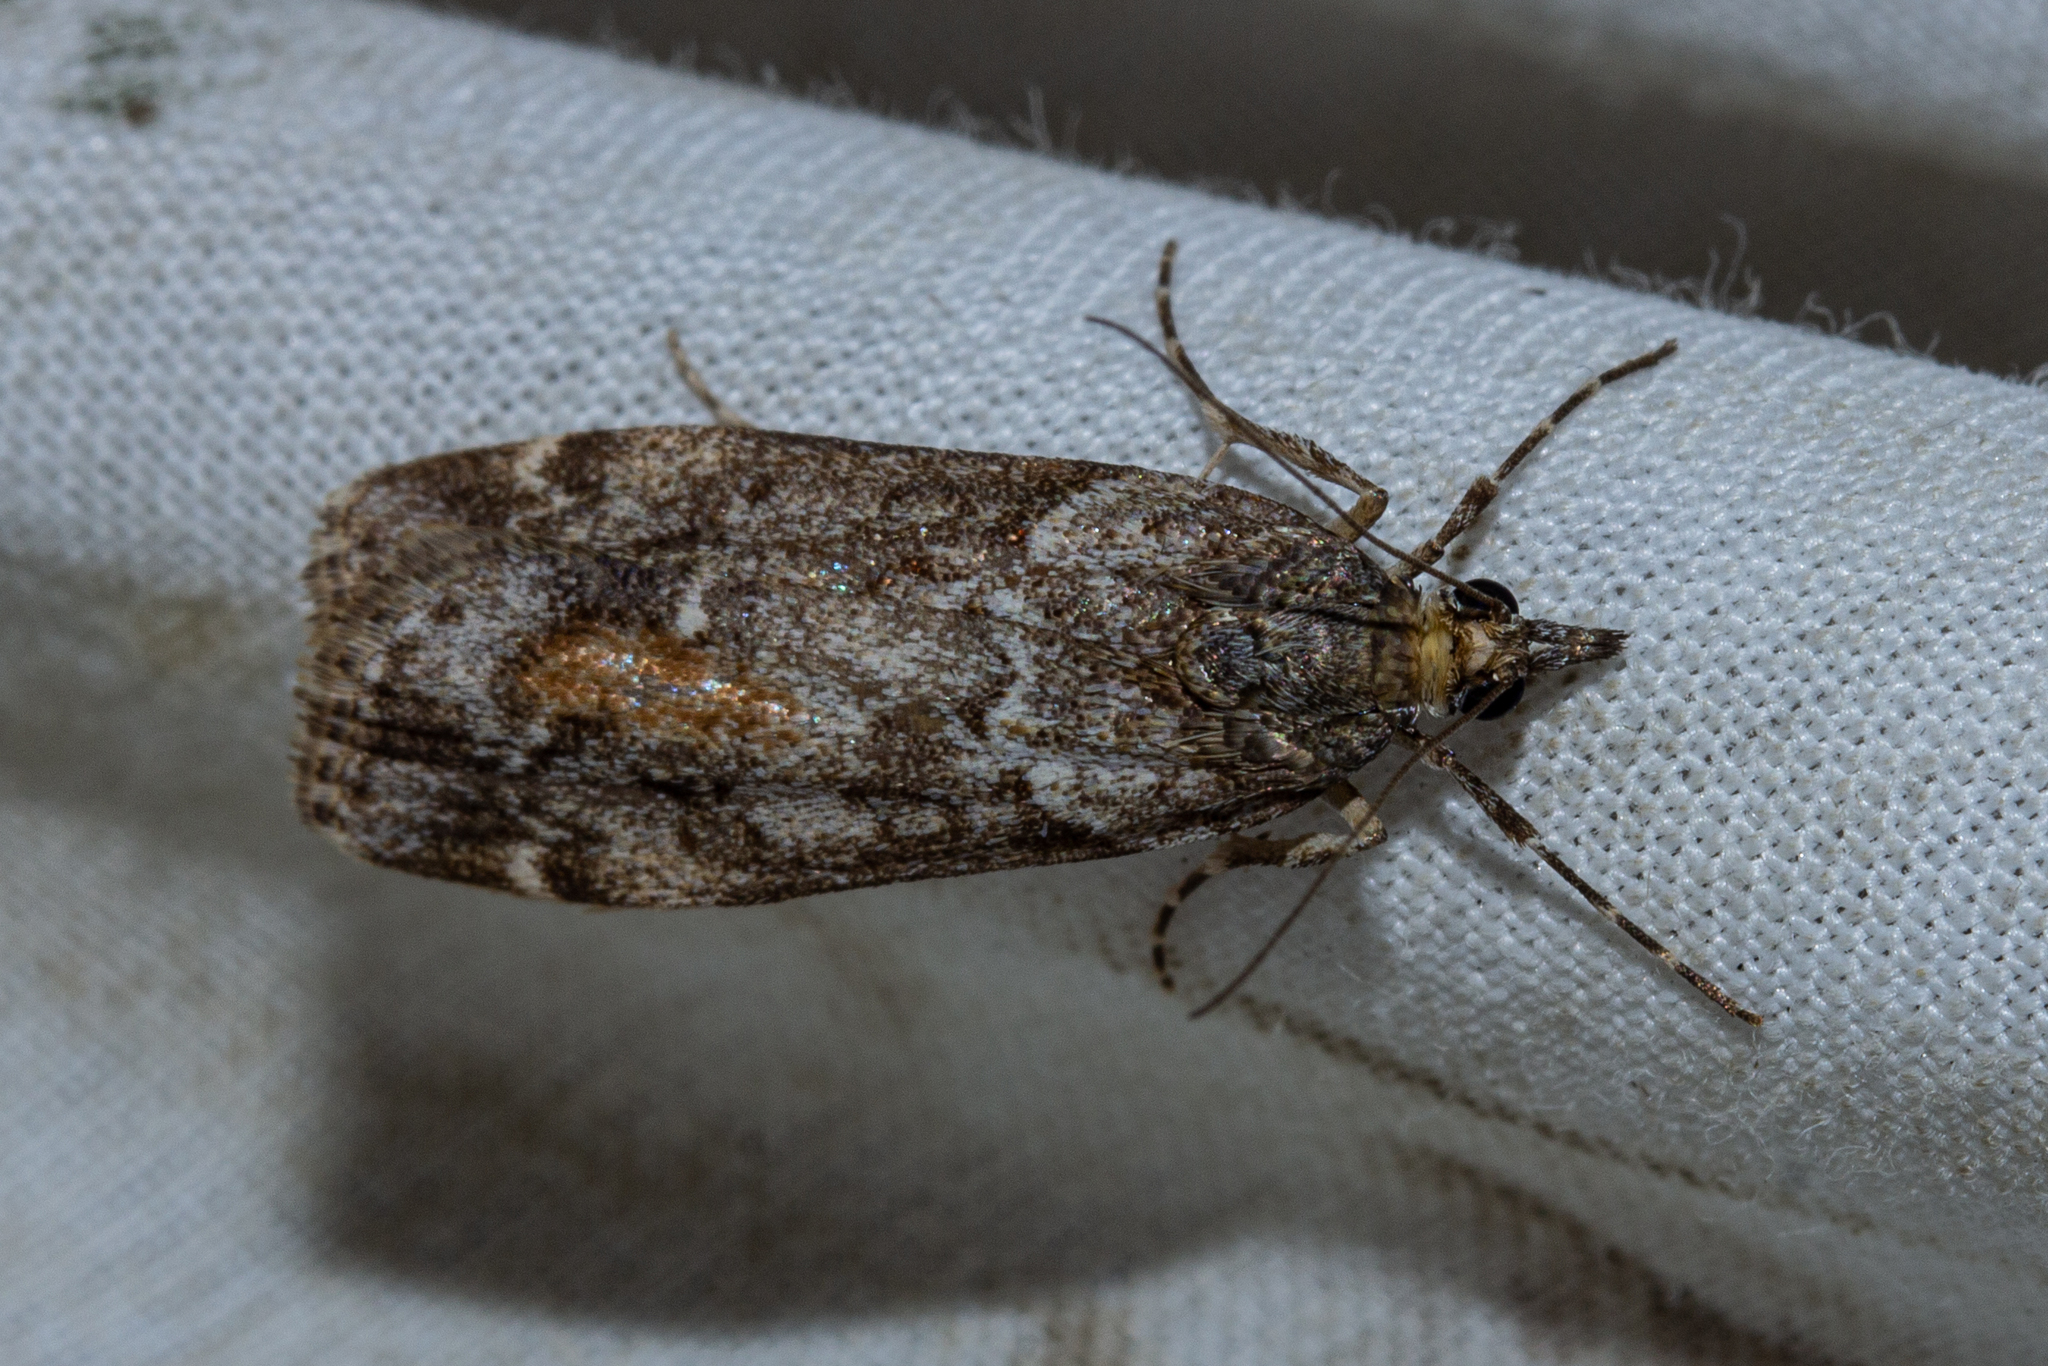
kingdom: Animalia
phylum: Arthropoda
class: Insecta
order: Lepidoptera
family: Crambidae
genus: Eudonia
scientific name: Eudonia submarginalis
